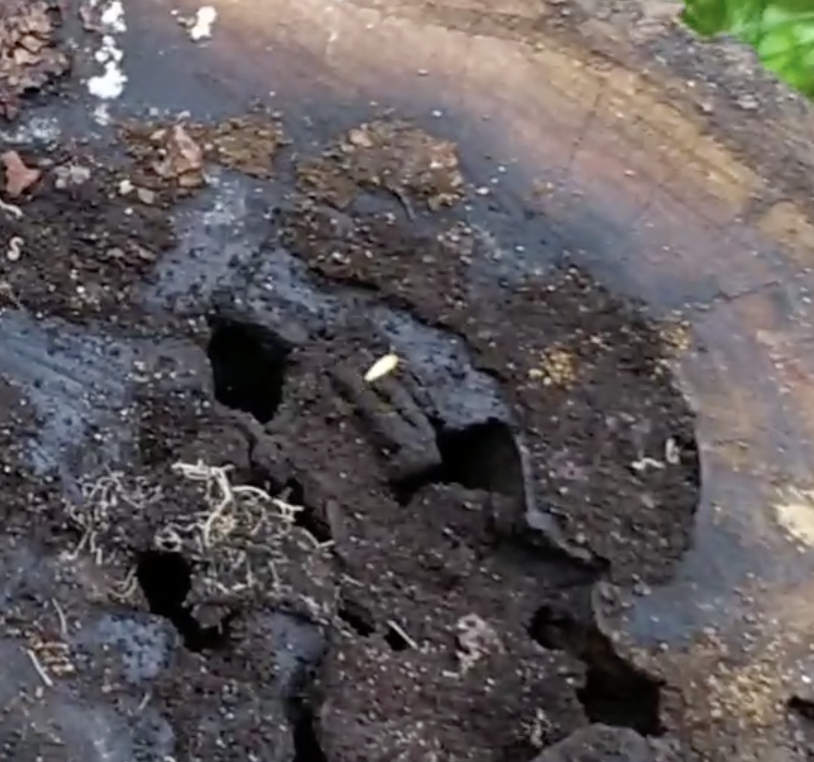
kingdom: Animalia
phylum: Arthropoda
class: Insecta
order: Zygentoma
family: Nicoletiidae
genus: Atelura
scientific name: Atelura formicaria
